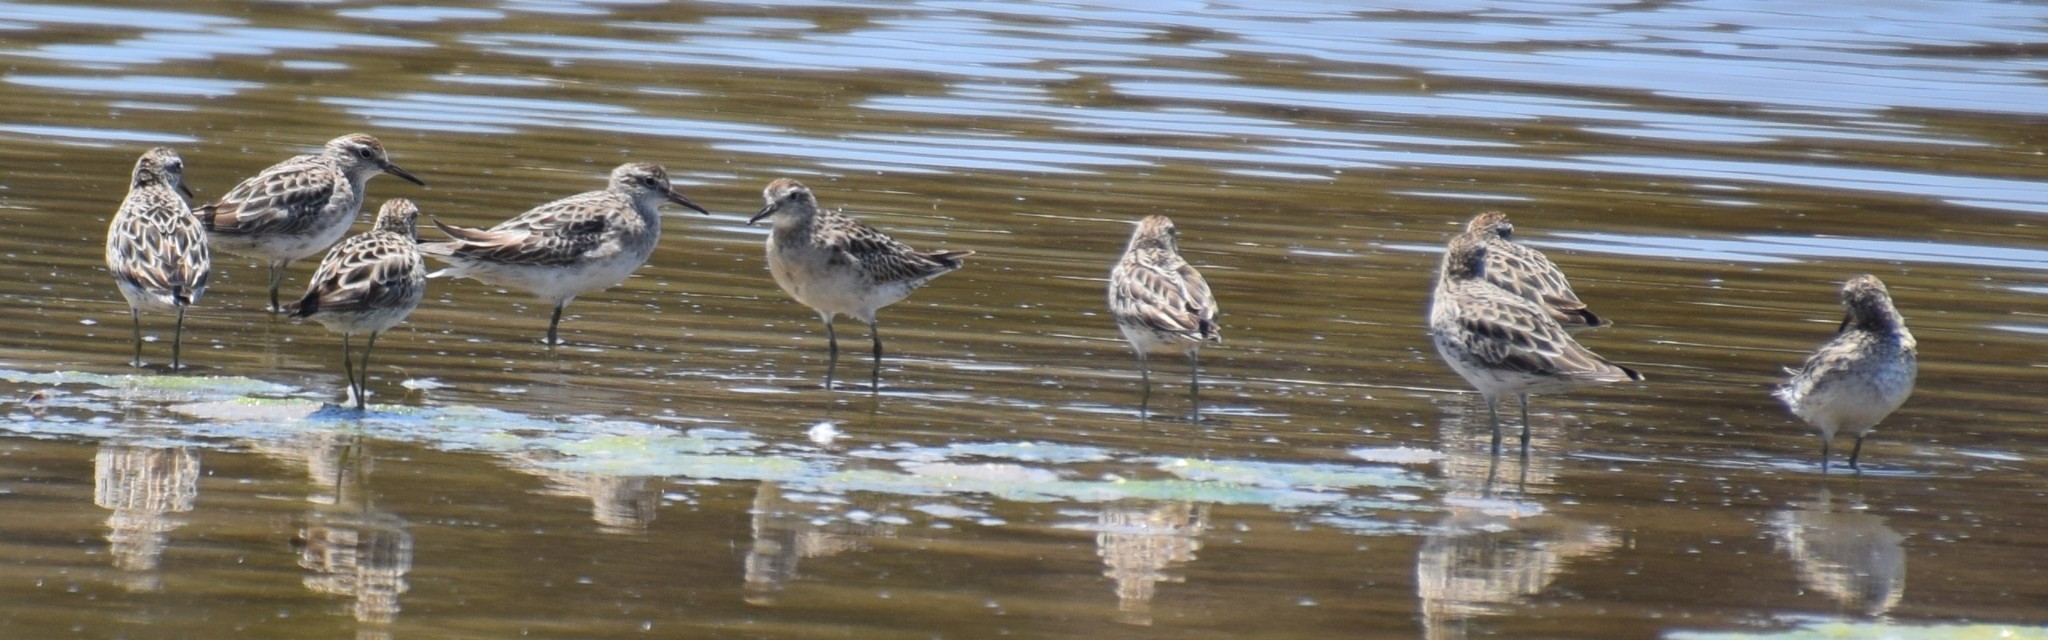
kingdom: Animalia
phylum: Chordata
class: Aves
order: Charadriiformes
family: Scolopacidae
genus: Calidris
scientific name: Calidris acuminata
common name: Sharp-tailed sandpiper
